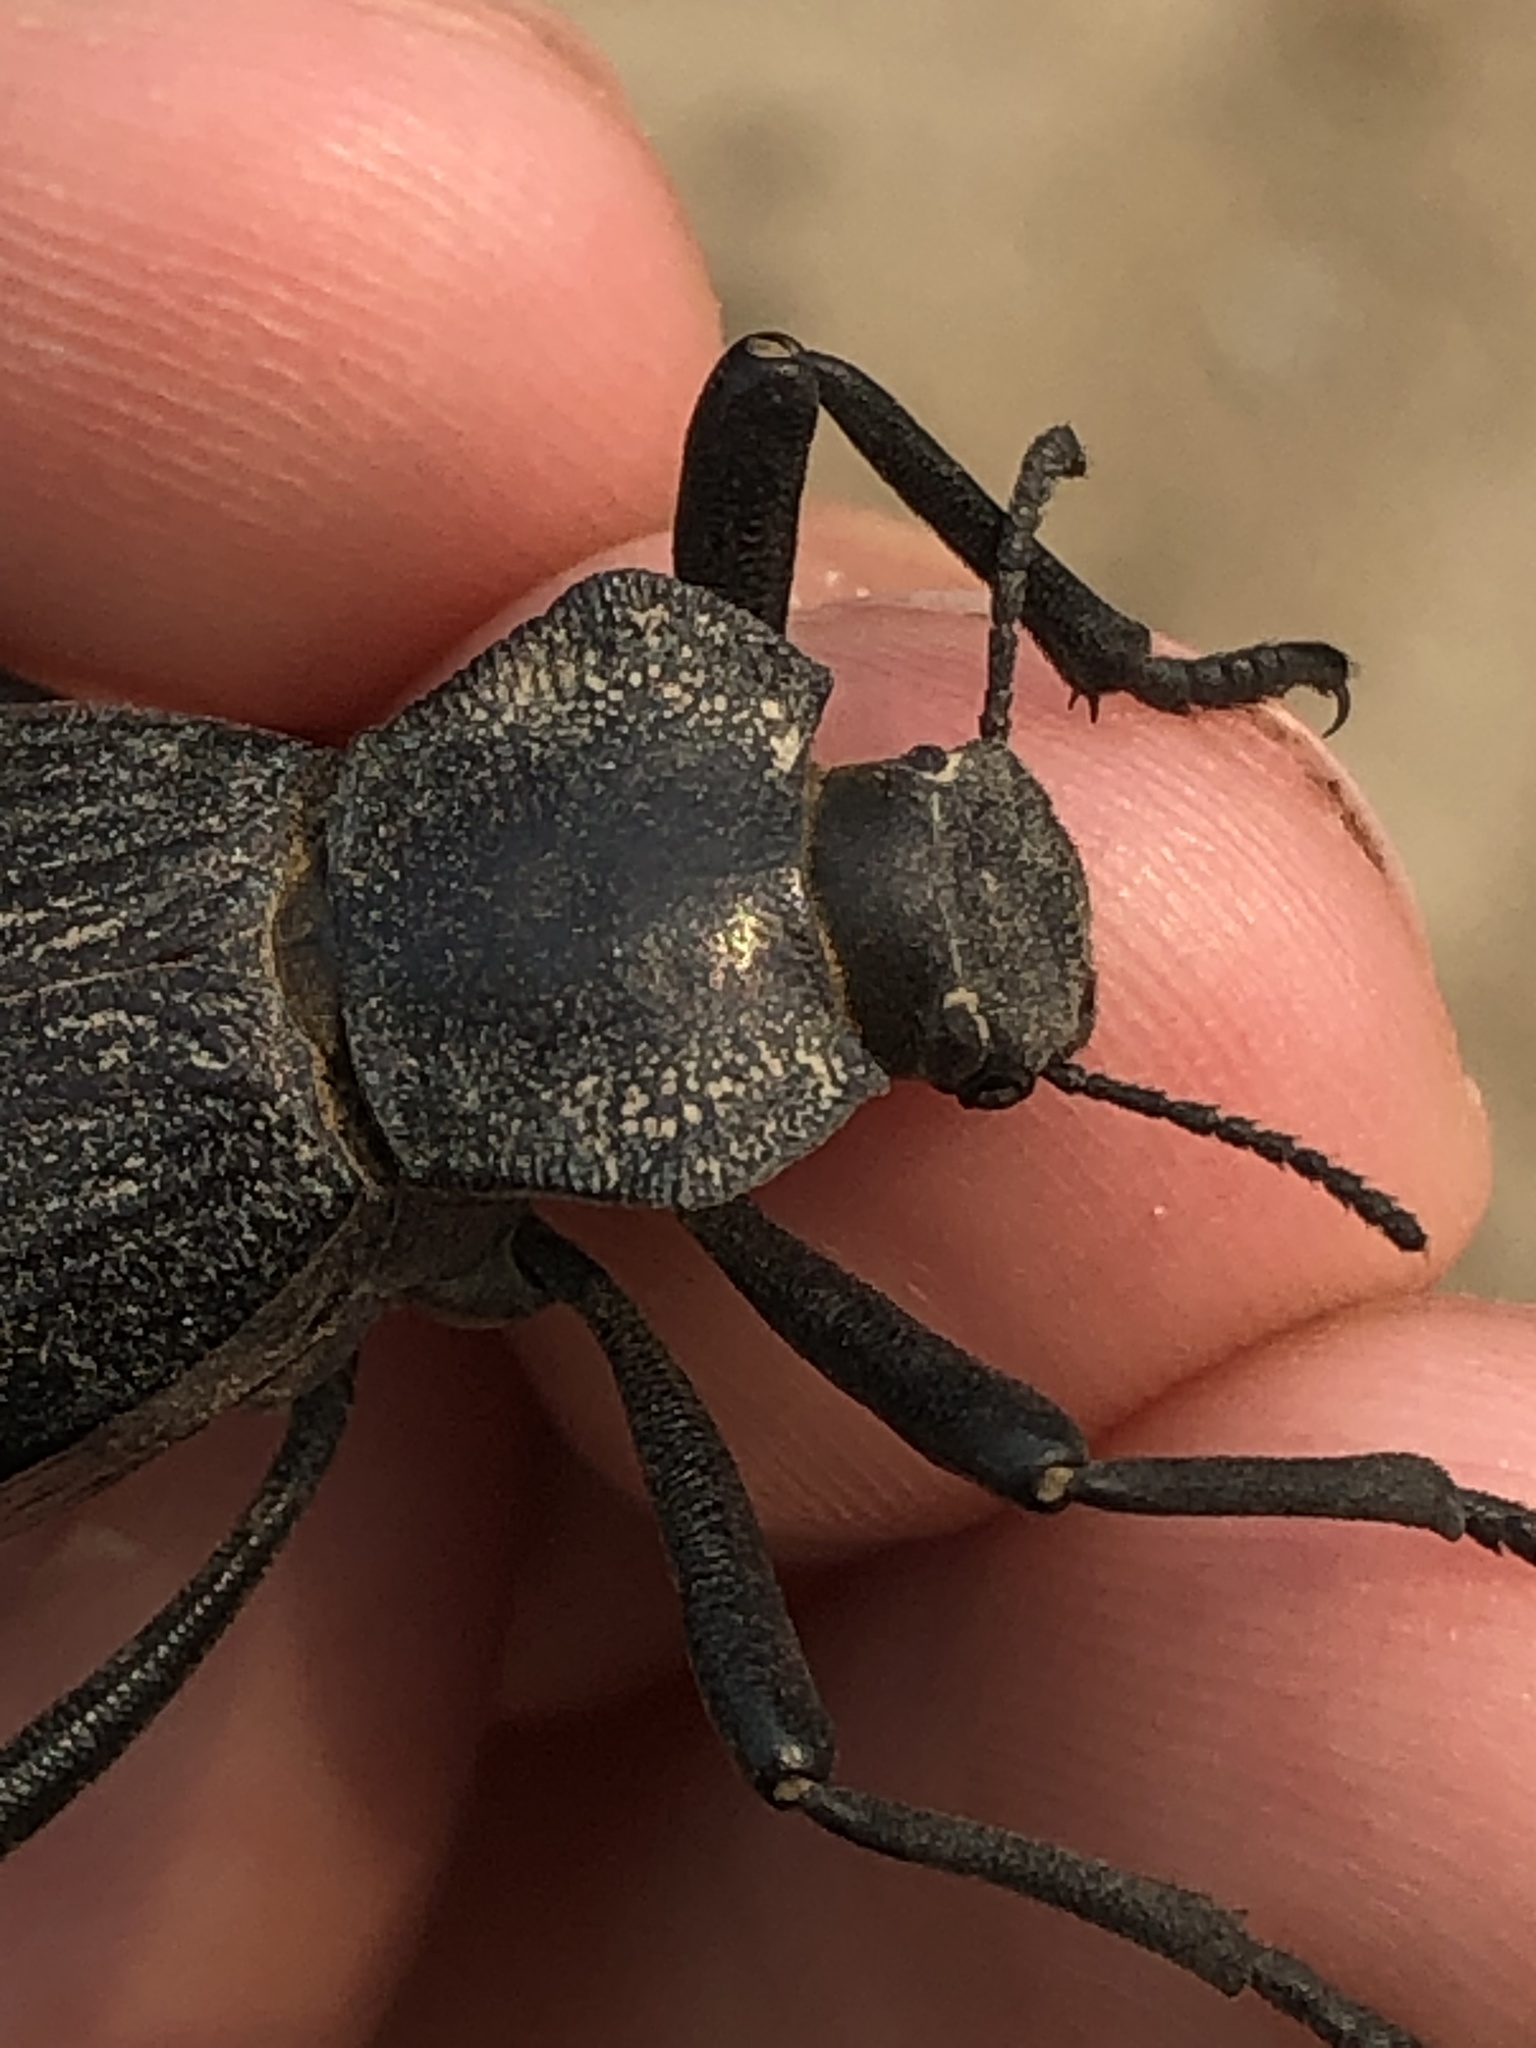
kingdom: Animalia
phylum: Arthropoda
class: Insecta
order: Coleoptera
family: Tenebrionidae
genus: Philolithus
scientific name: Philolithus elatus
